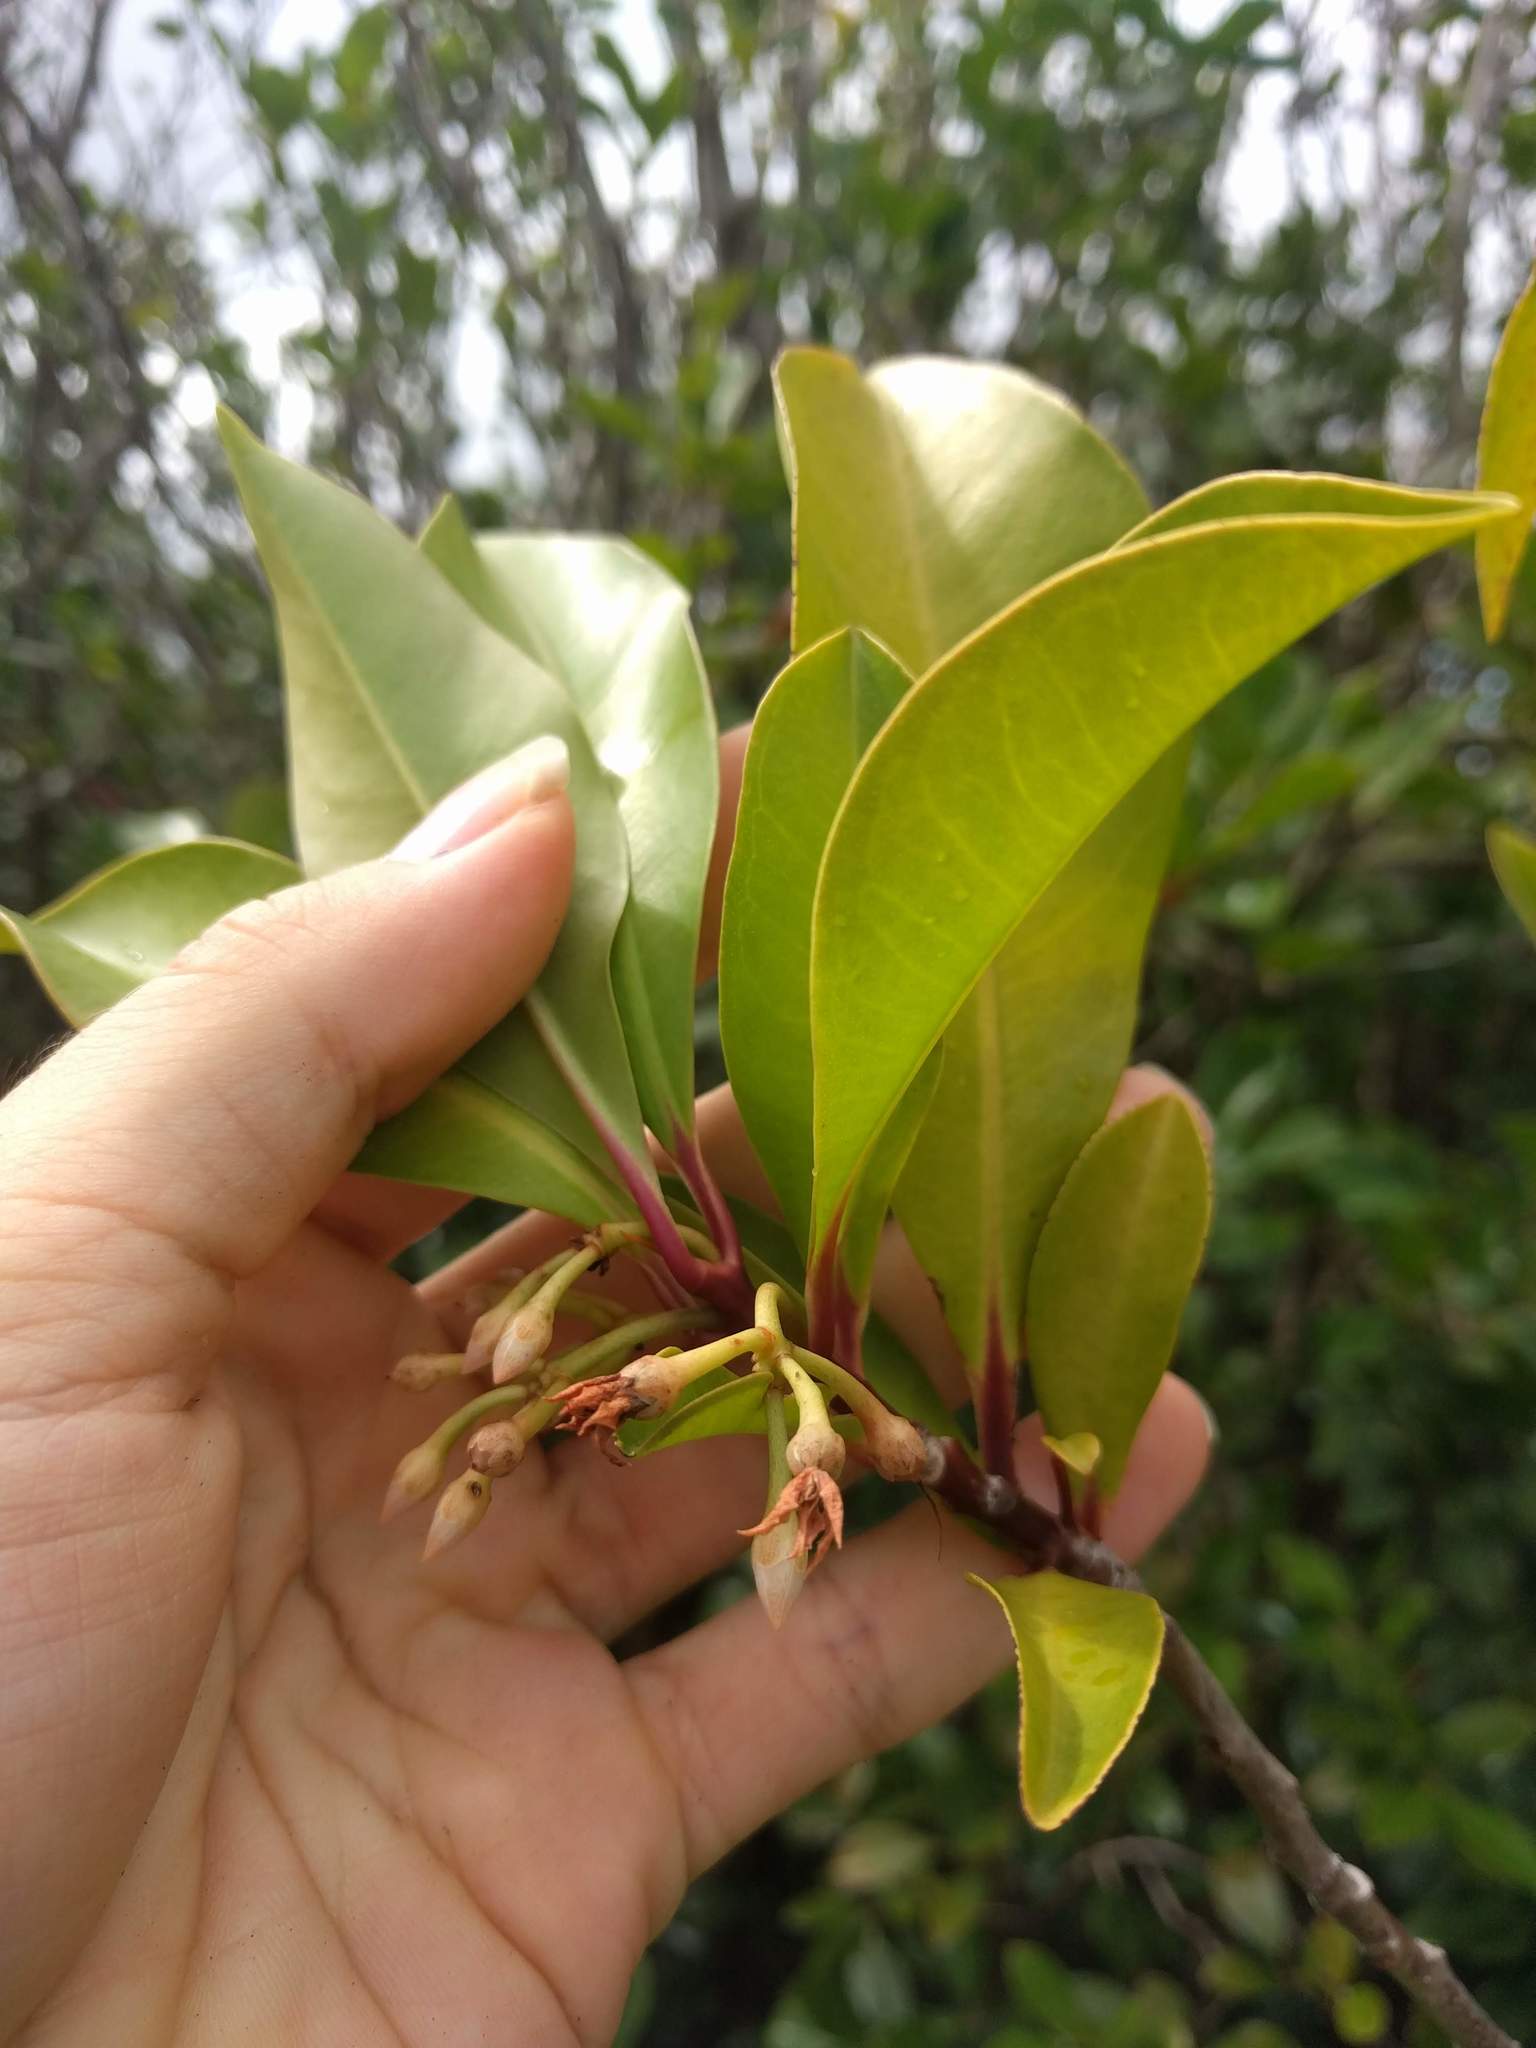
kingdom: Plantae
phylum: Tracheophyta
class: Magnoliopsida
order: Ericales
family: Primulaceae
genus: Ardisia
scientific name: Ardisia elliptica
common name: Shoebutton
